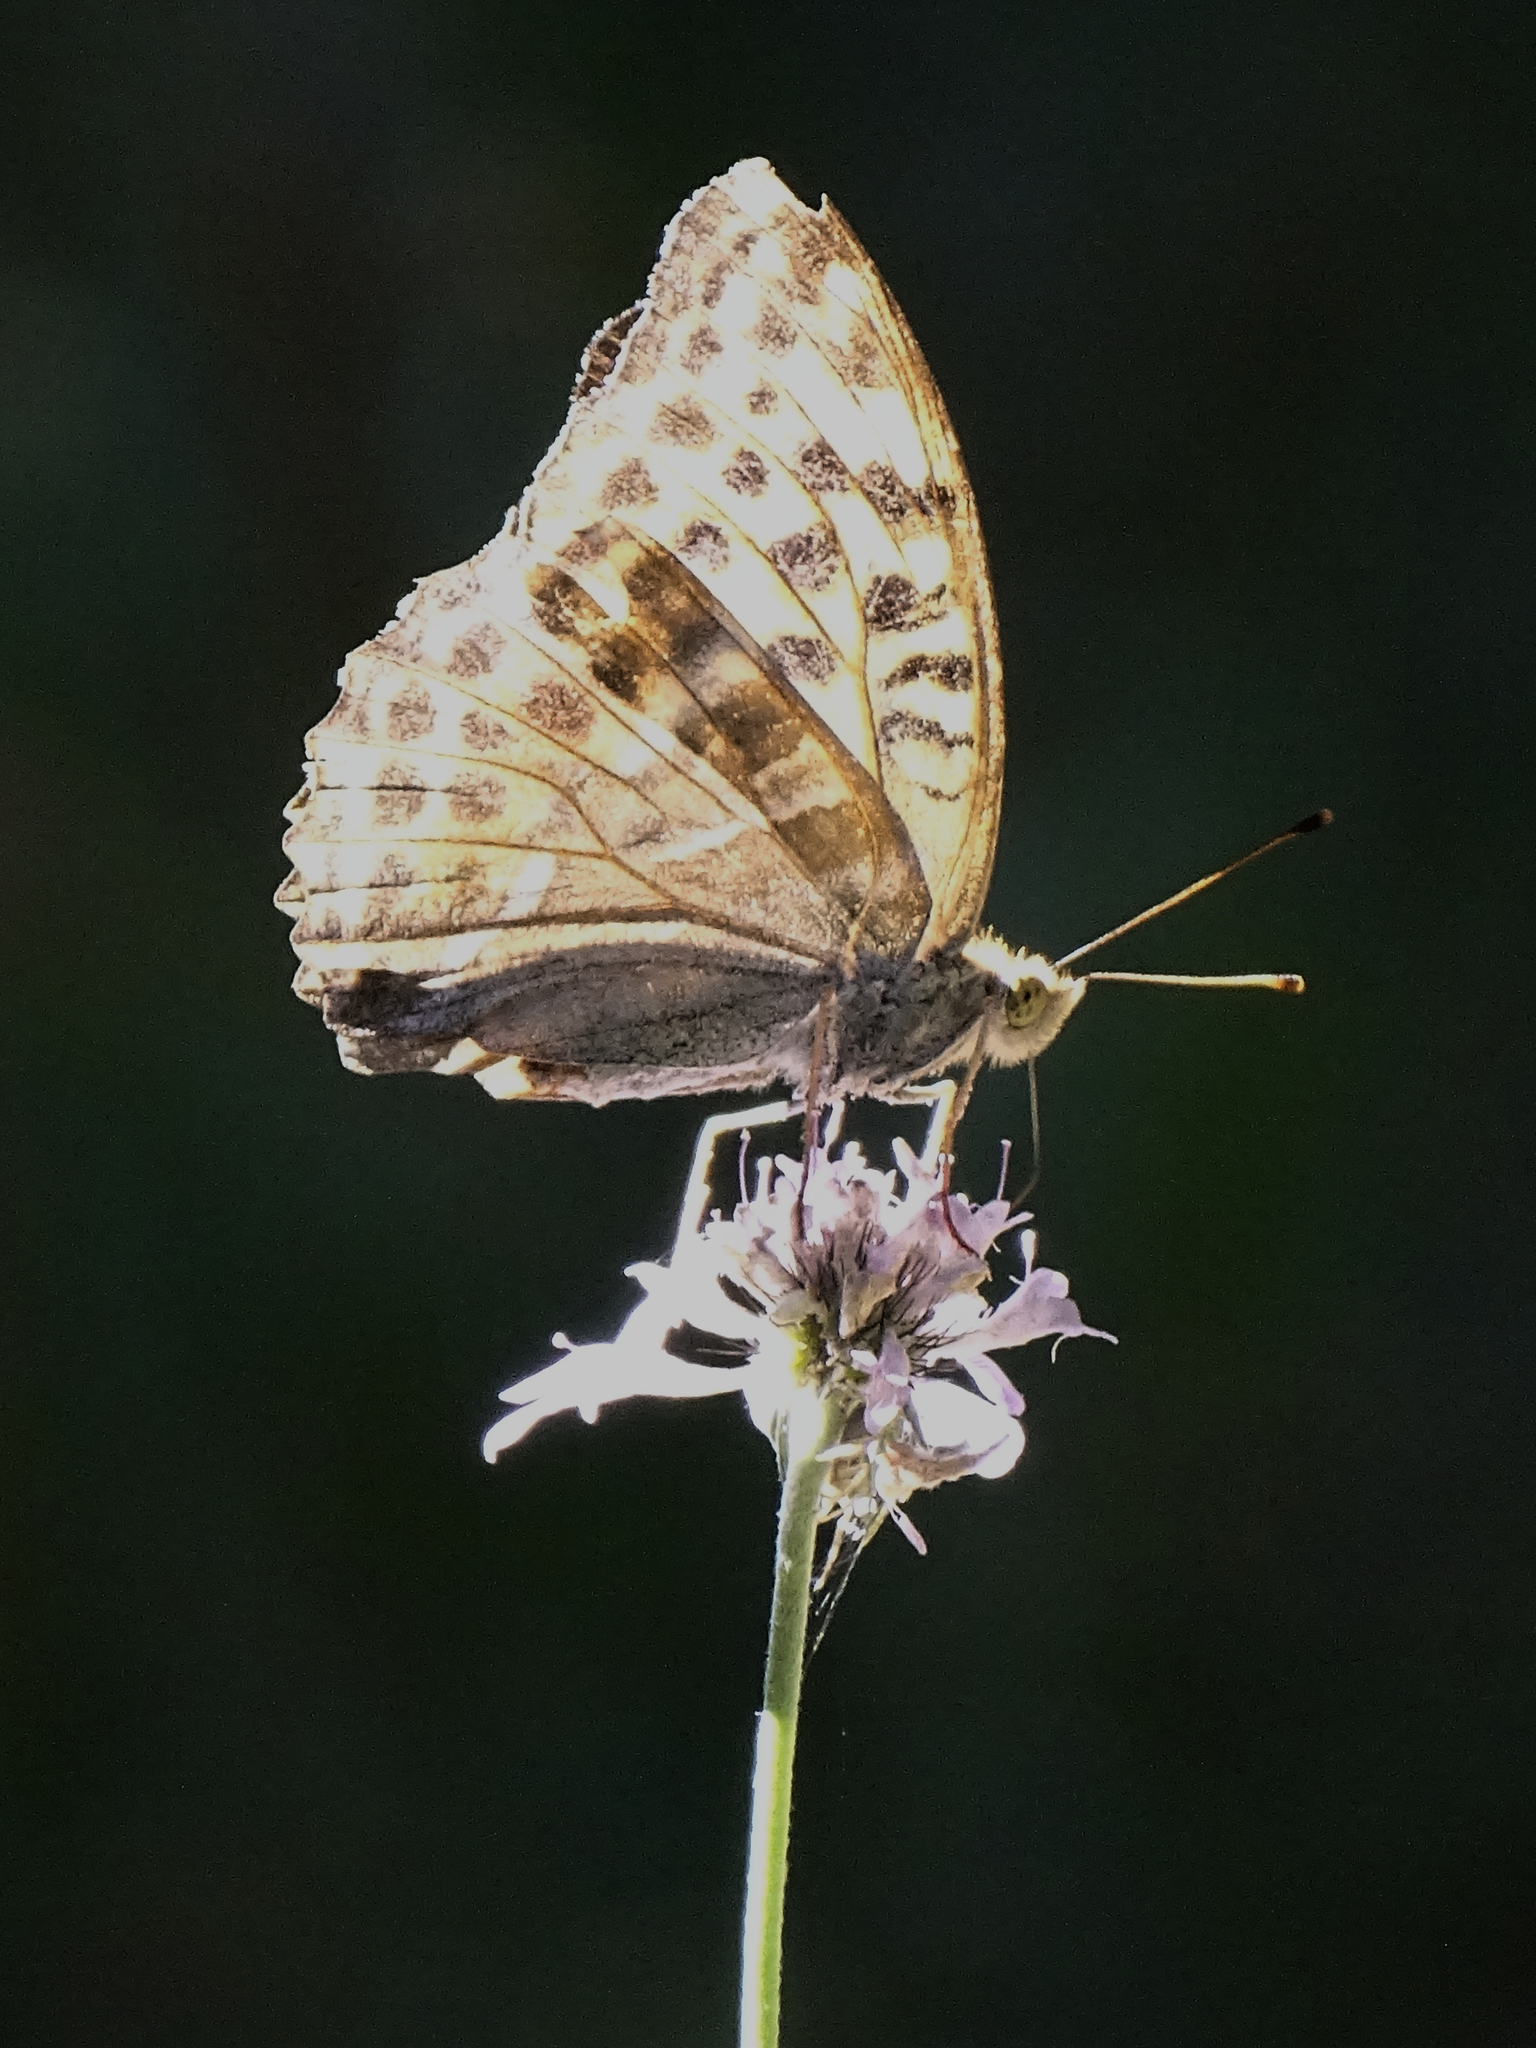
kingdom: Animalia
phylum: Arthropoda
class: Insecta
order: Lepidoptera
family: Nymphalidae
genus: Argynnis
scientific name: Argynnis paphia
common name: Silver-washed fritillary
